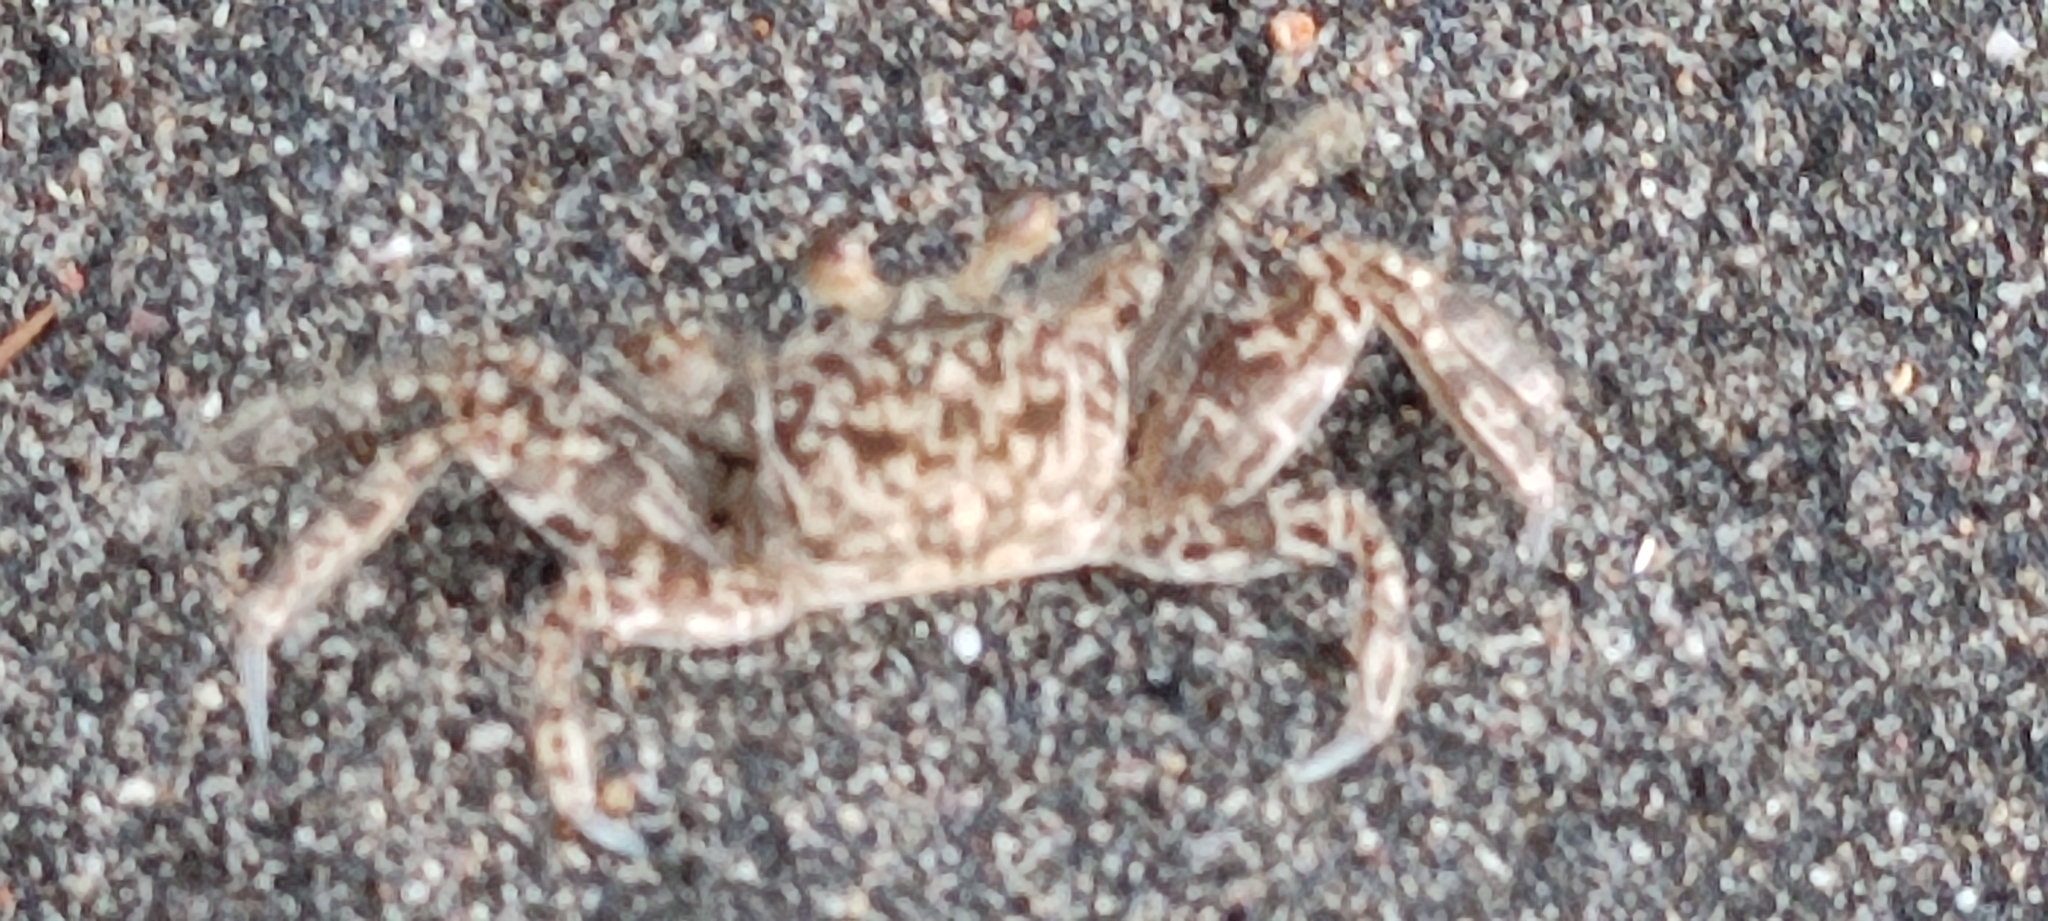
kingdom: Animalia
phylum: Arthropoda
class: Malacostraca
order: Decapoda
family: Ocypodidae
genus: Ocypode
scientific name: Ocypode quadrata
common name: Ghost crab
